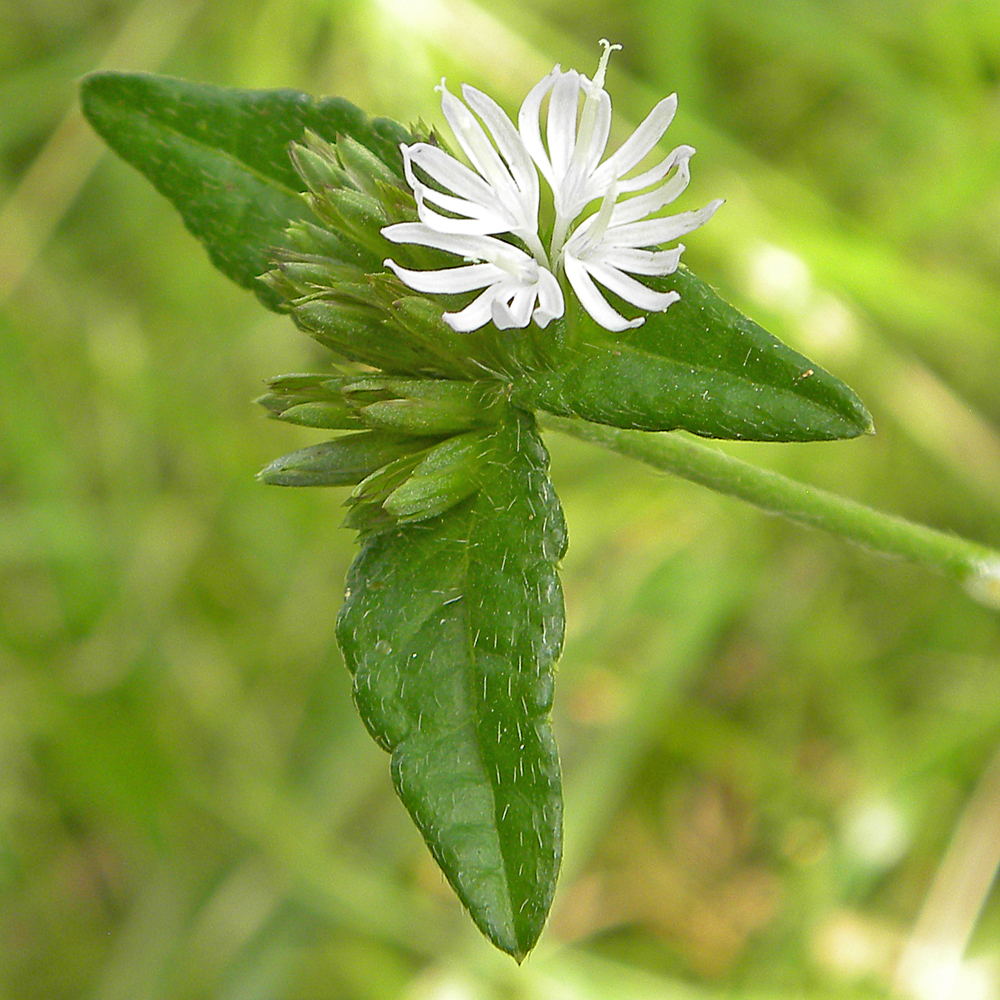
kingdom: Plantae
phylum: Tracheophyta
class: Magnoliopsida
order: Asterales
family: Asteraceae
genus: Elephantopus
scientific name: Elephantopus carolinianus
